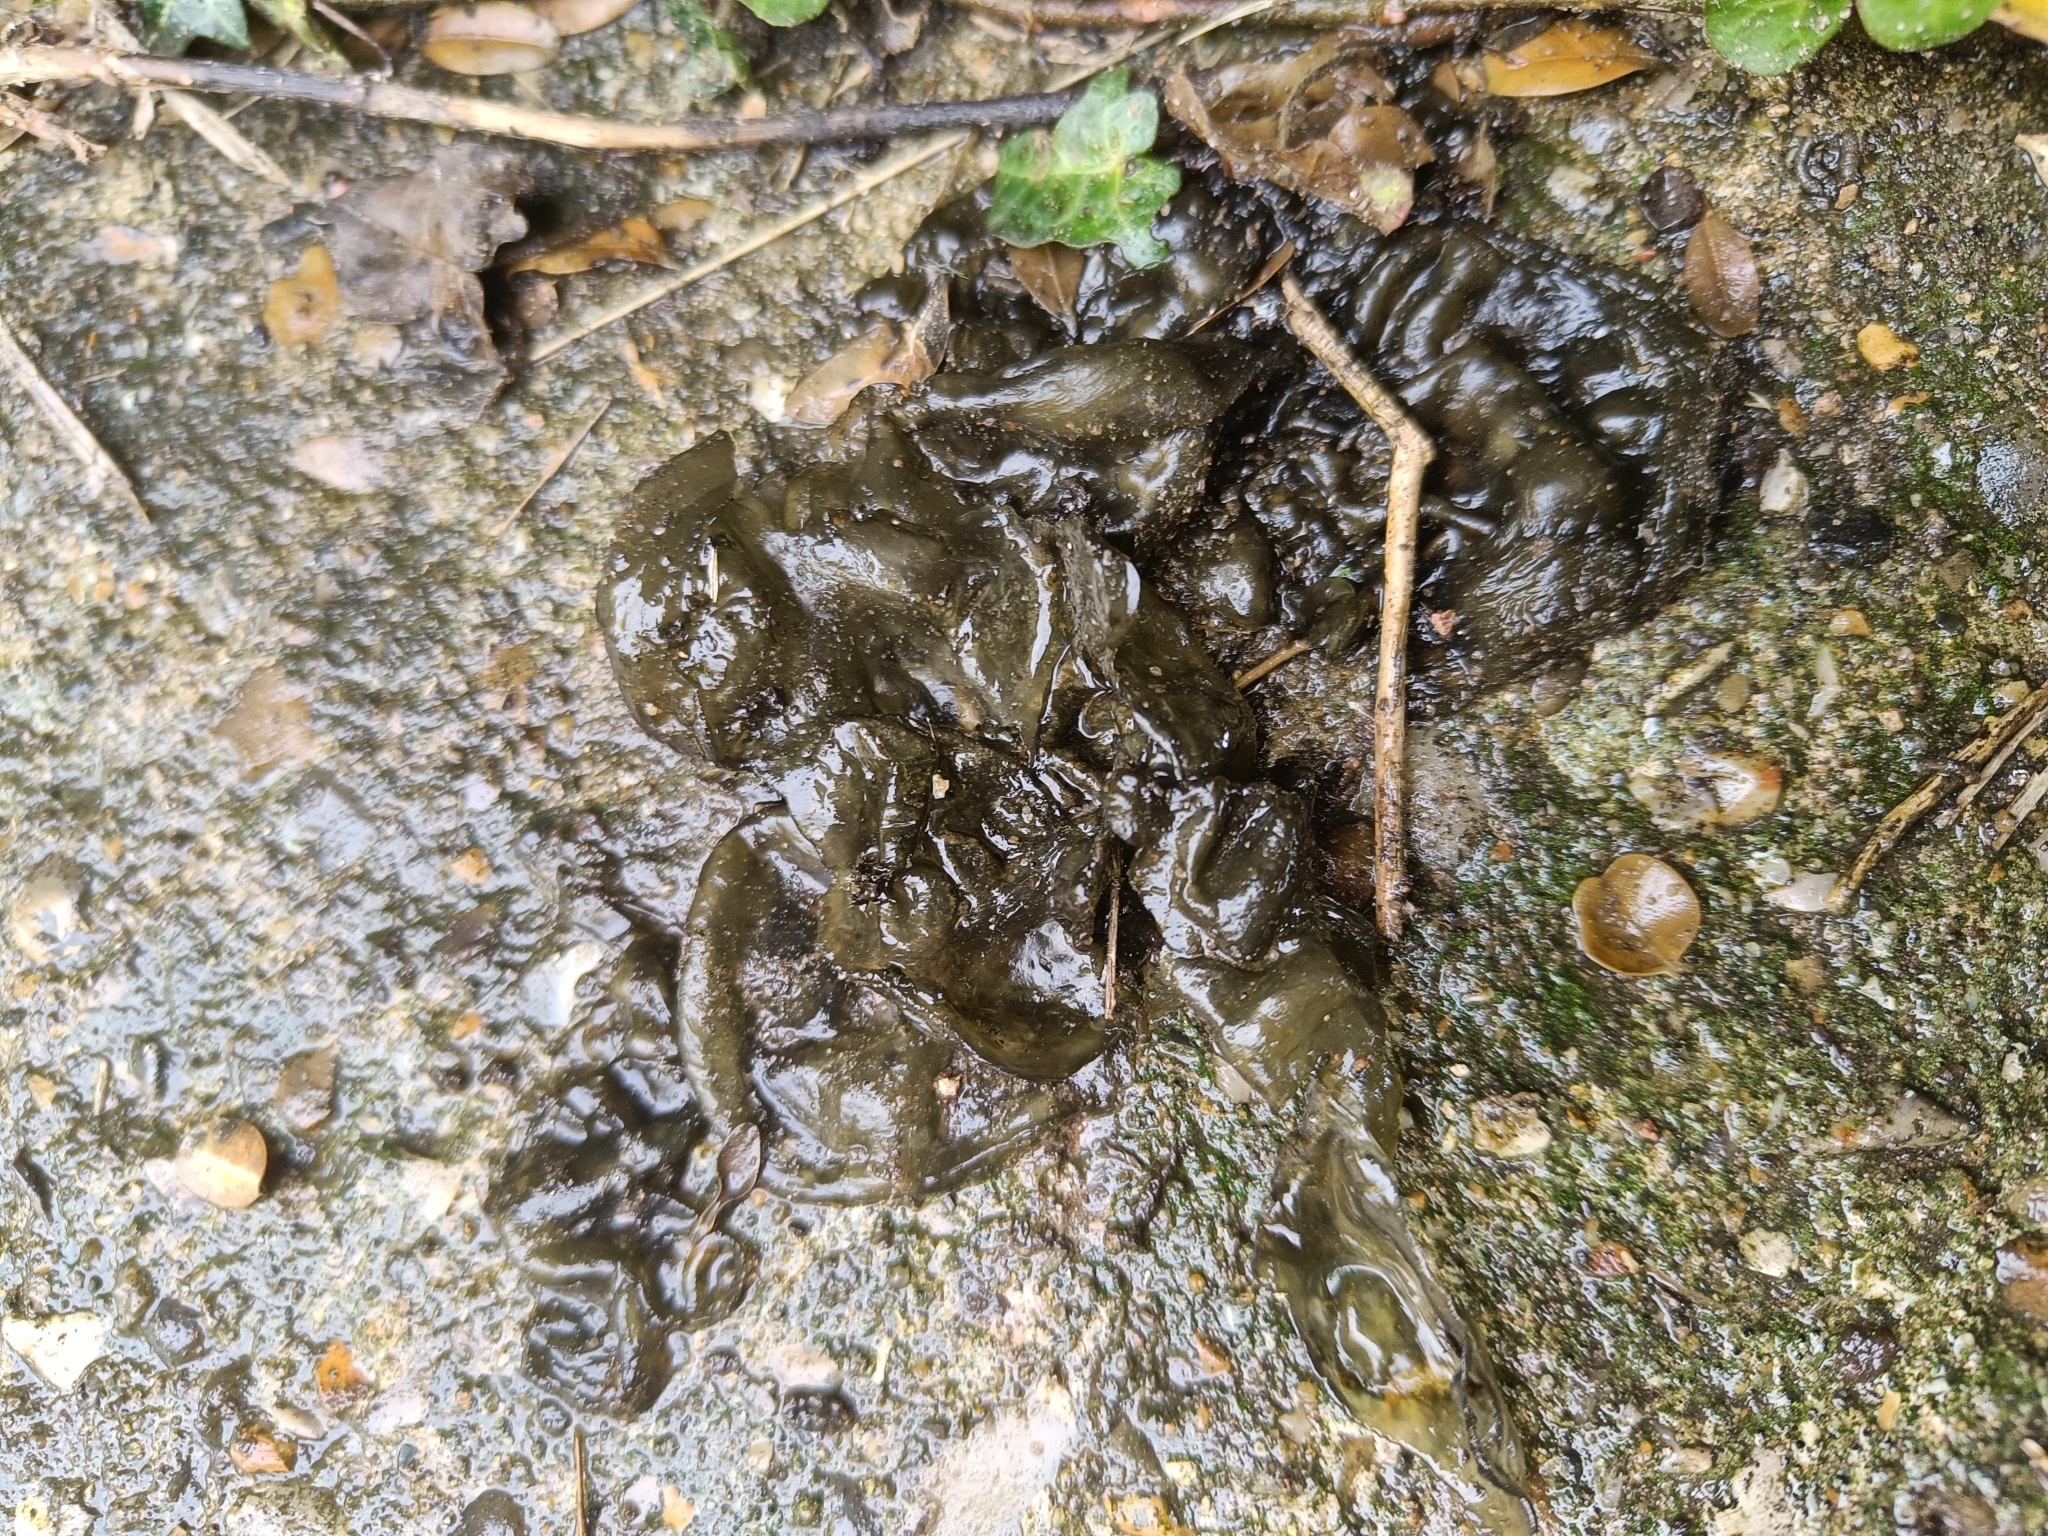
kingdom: Bacteria
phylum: Cyanobacteria
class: Cyanobacteriia
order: Cyanobacteriales
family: Nostocaceae
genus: Nostoc
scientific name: Nostoc commune
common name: Star jelly
